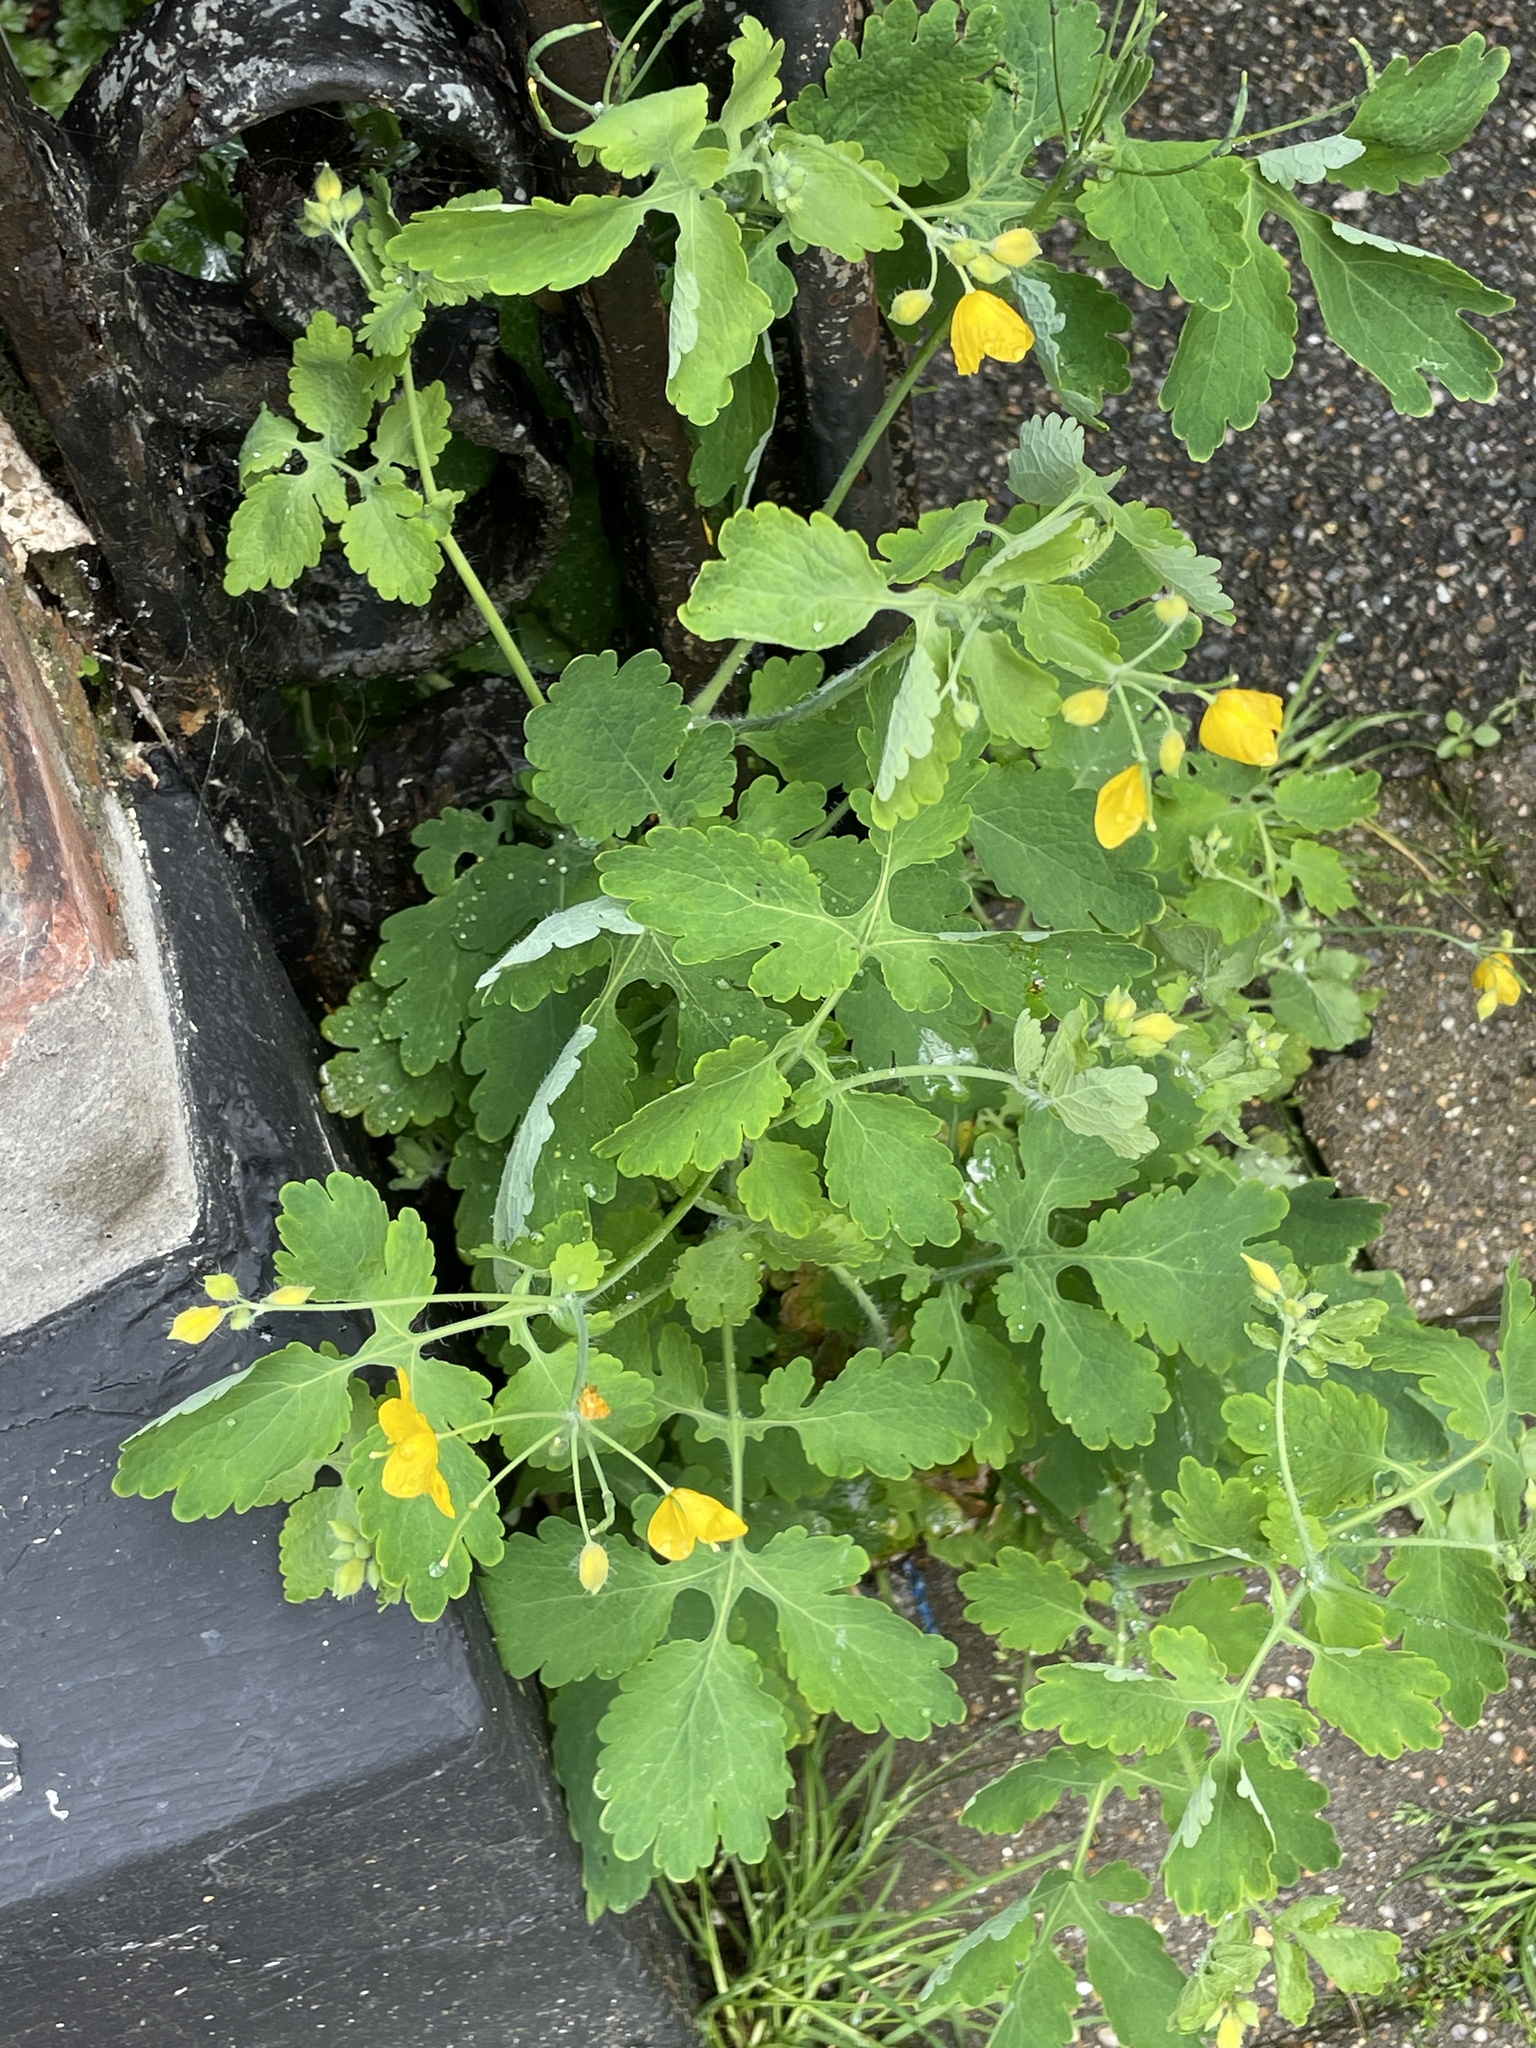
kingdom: Plantae
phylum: Tracheophyta
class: Magnoliopsida
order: Ranunculales
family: Papaveraceae
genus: Chelidonium
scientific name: Chelidonium majus
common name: Greater celandine
